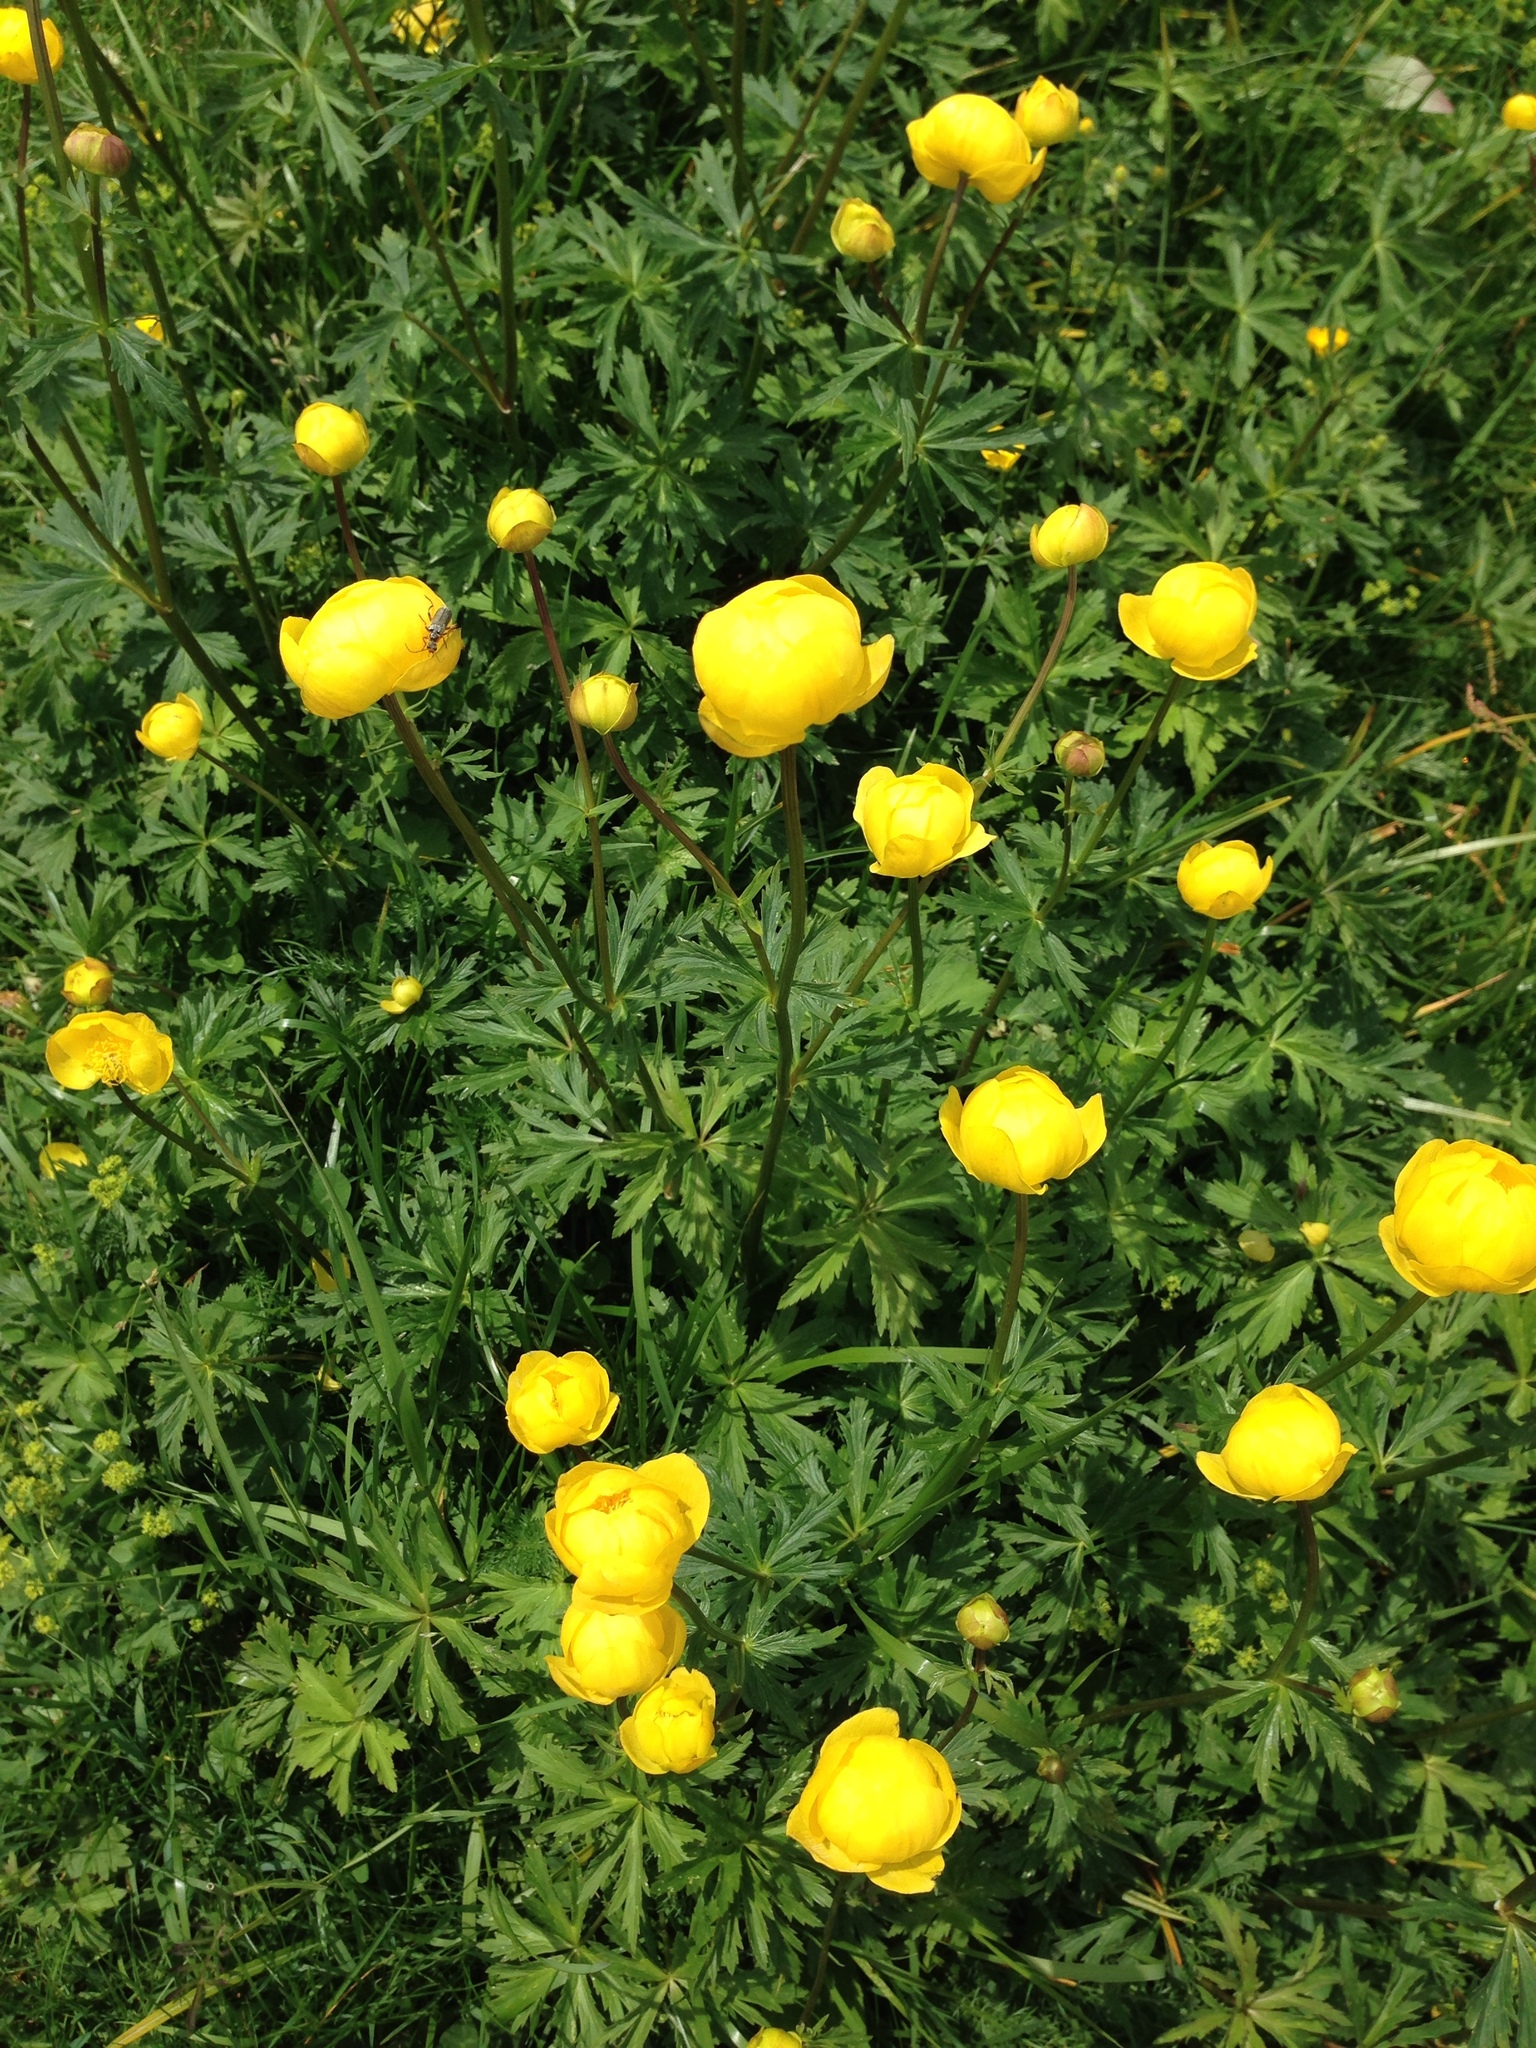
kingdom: Plantae
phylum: Tracheophyta
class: Magnoliopsida
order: Ranunculales
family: Ranunculaceae
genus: Trollius
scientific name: Trollius europaeus
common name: European globeflower
